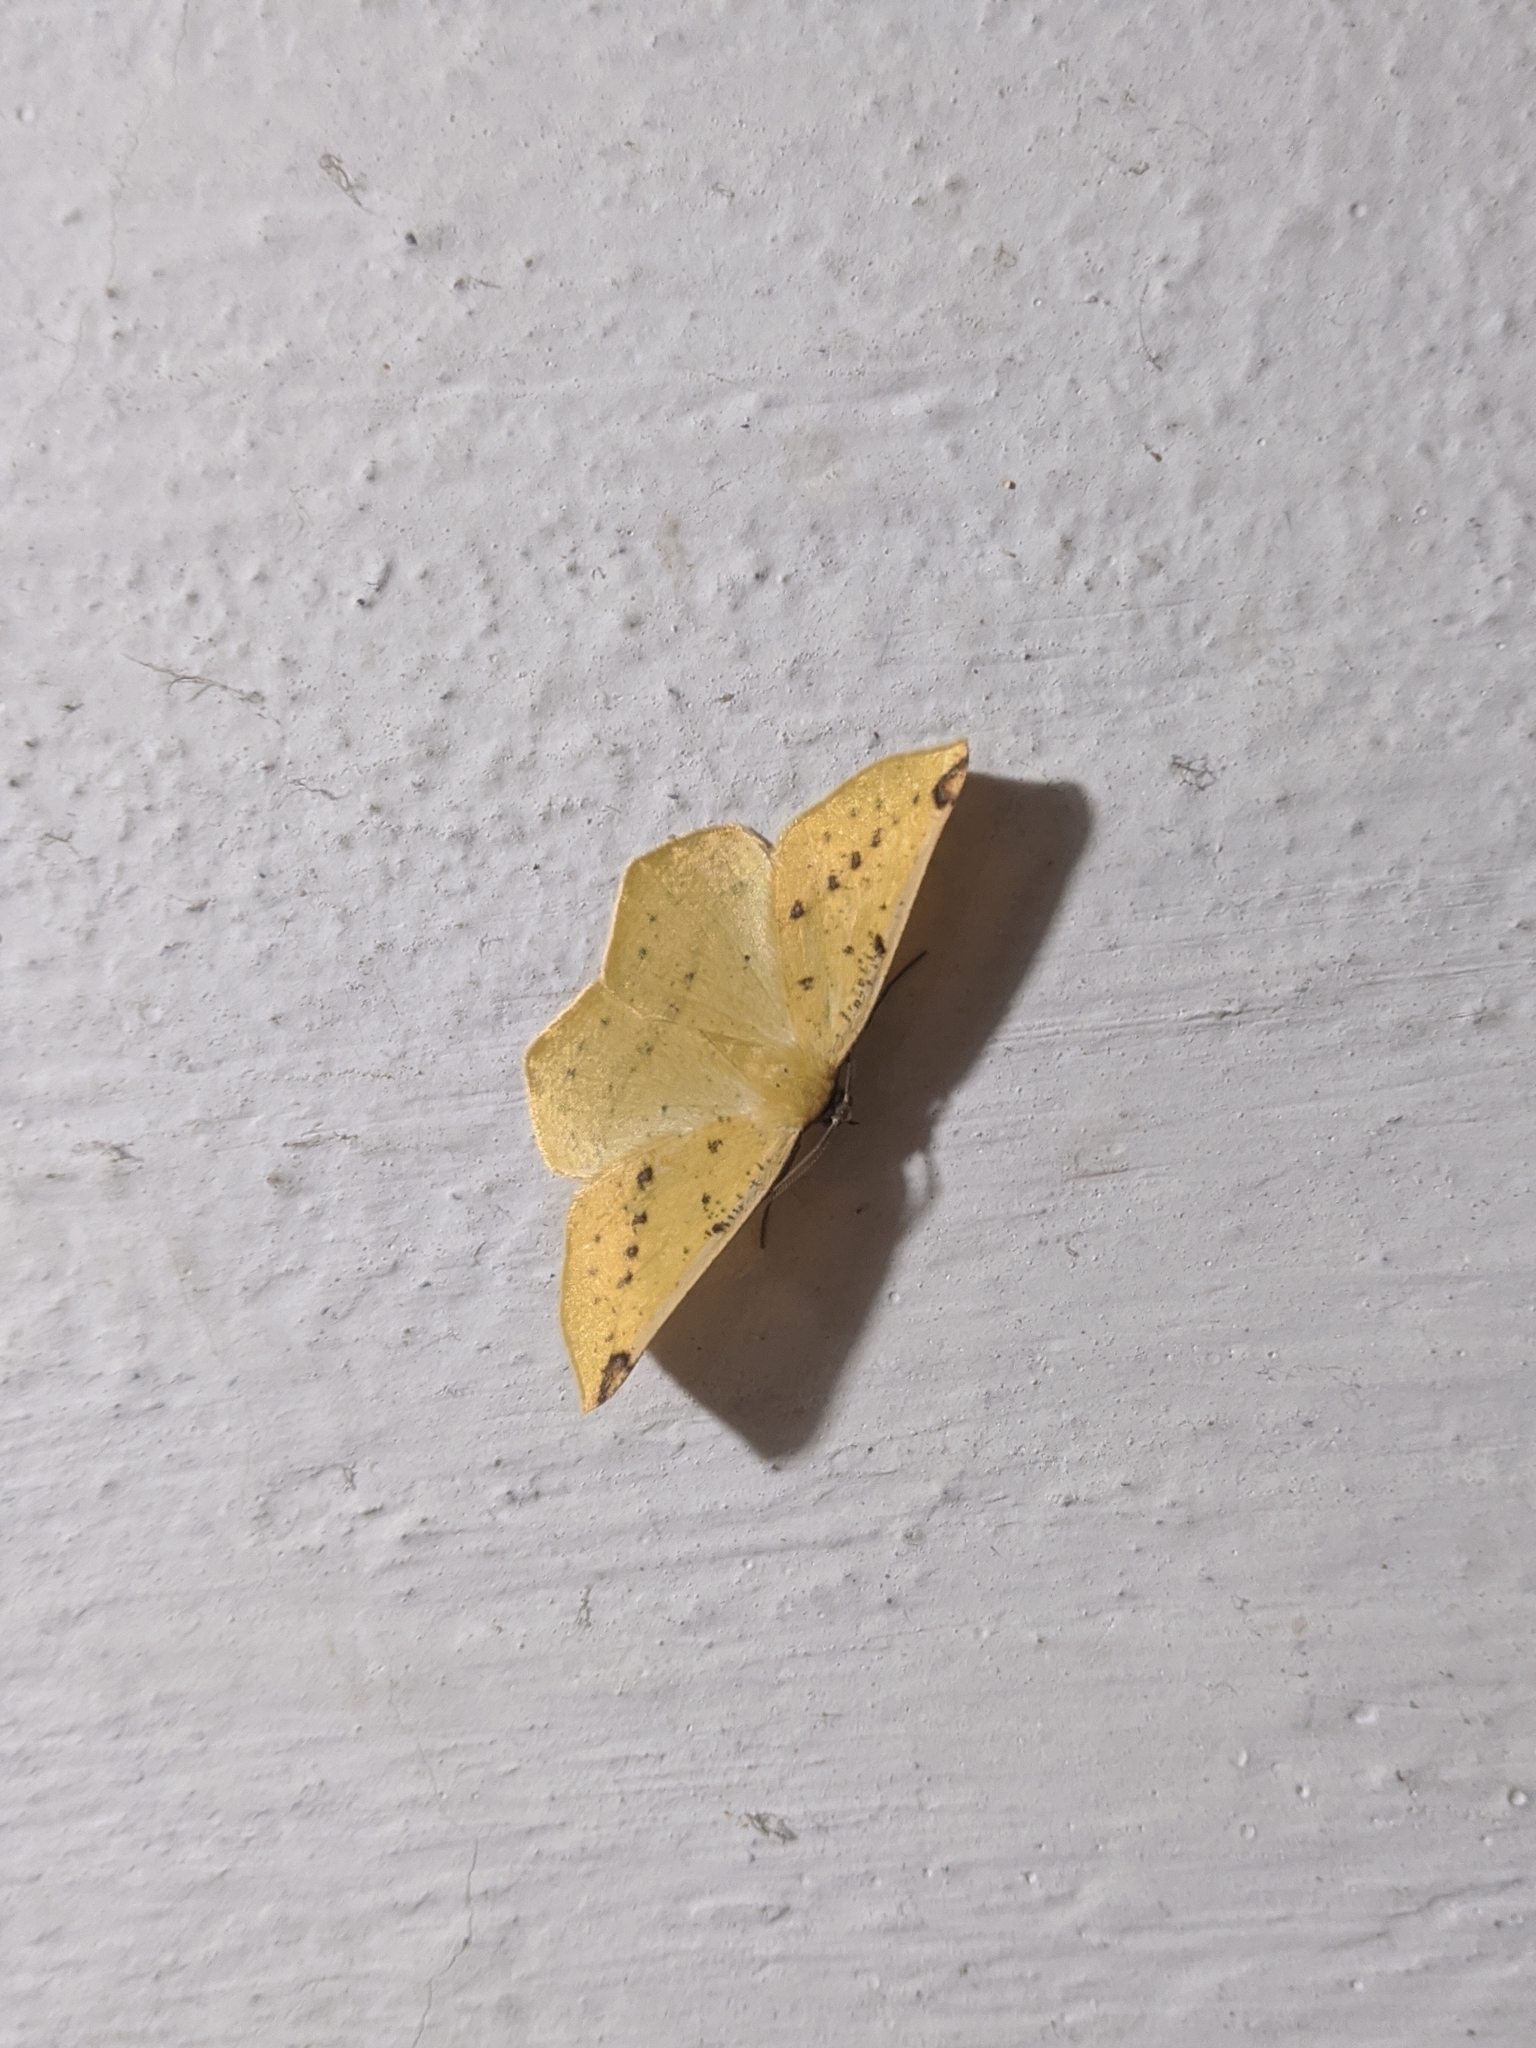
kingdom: Animalia
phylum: Arthropoda
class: Insecta
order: Lepidoptera
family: Geometridae
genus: Microsema
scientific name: Microsema gladiaria
